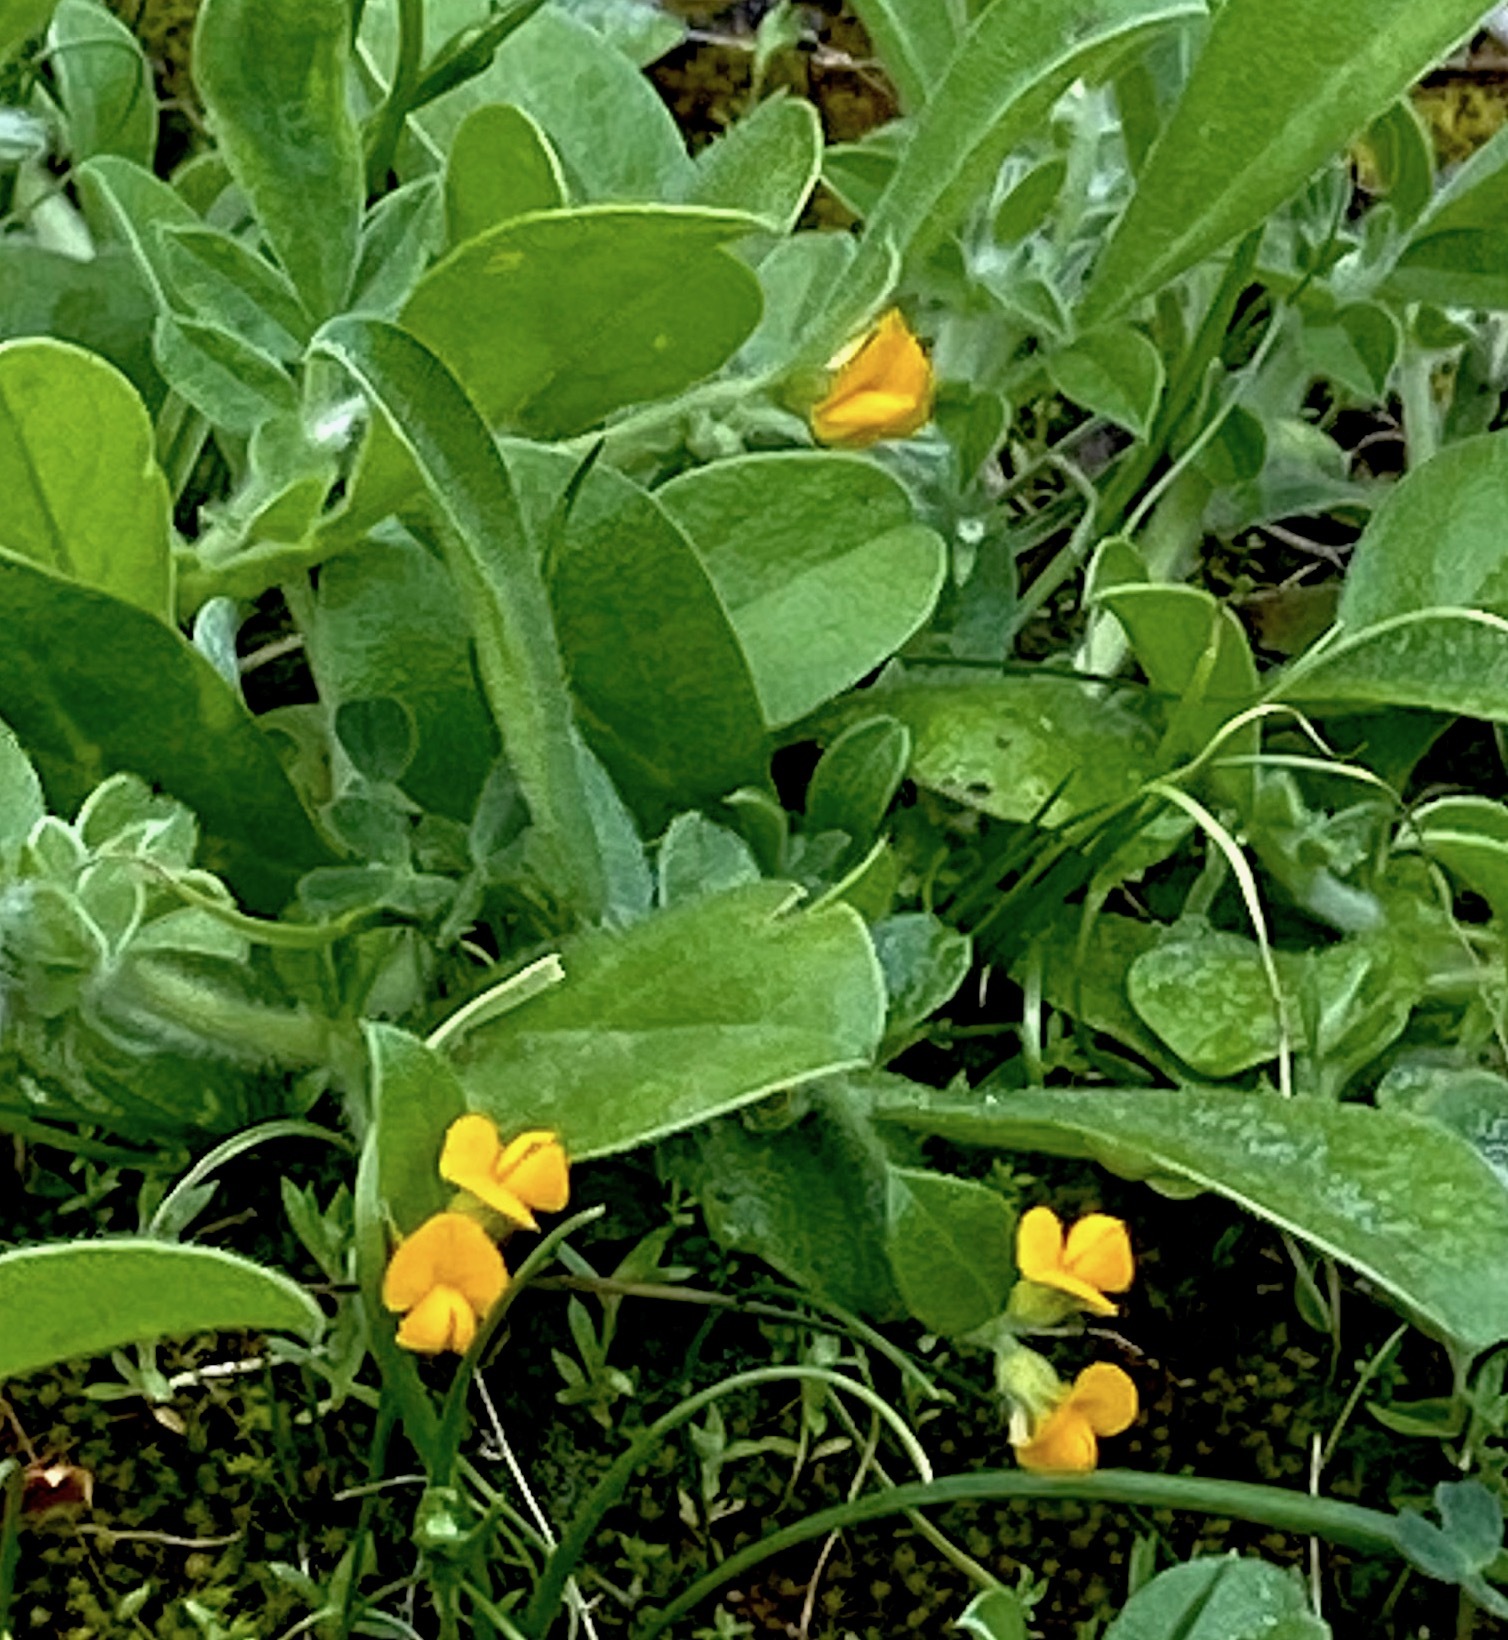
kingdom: Plantae
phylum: Tracheophyta
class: Magnoliopsida
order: Fabales
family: Fabaceae
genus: Anthyllis
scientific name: Anthyllis circinnata
